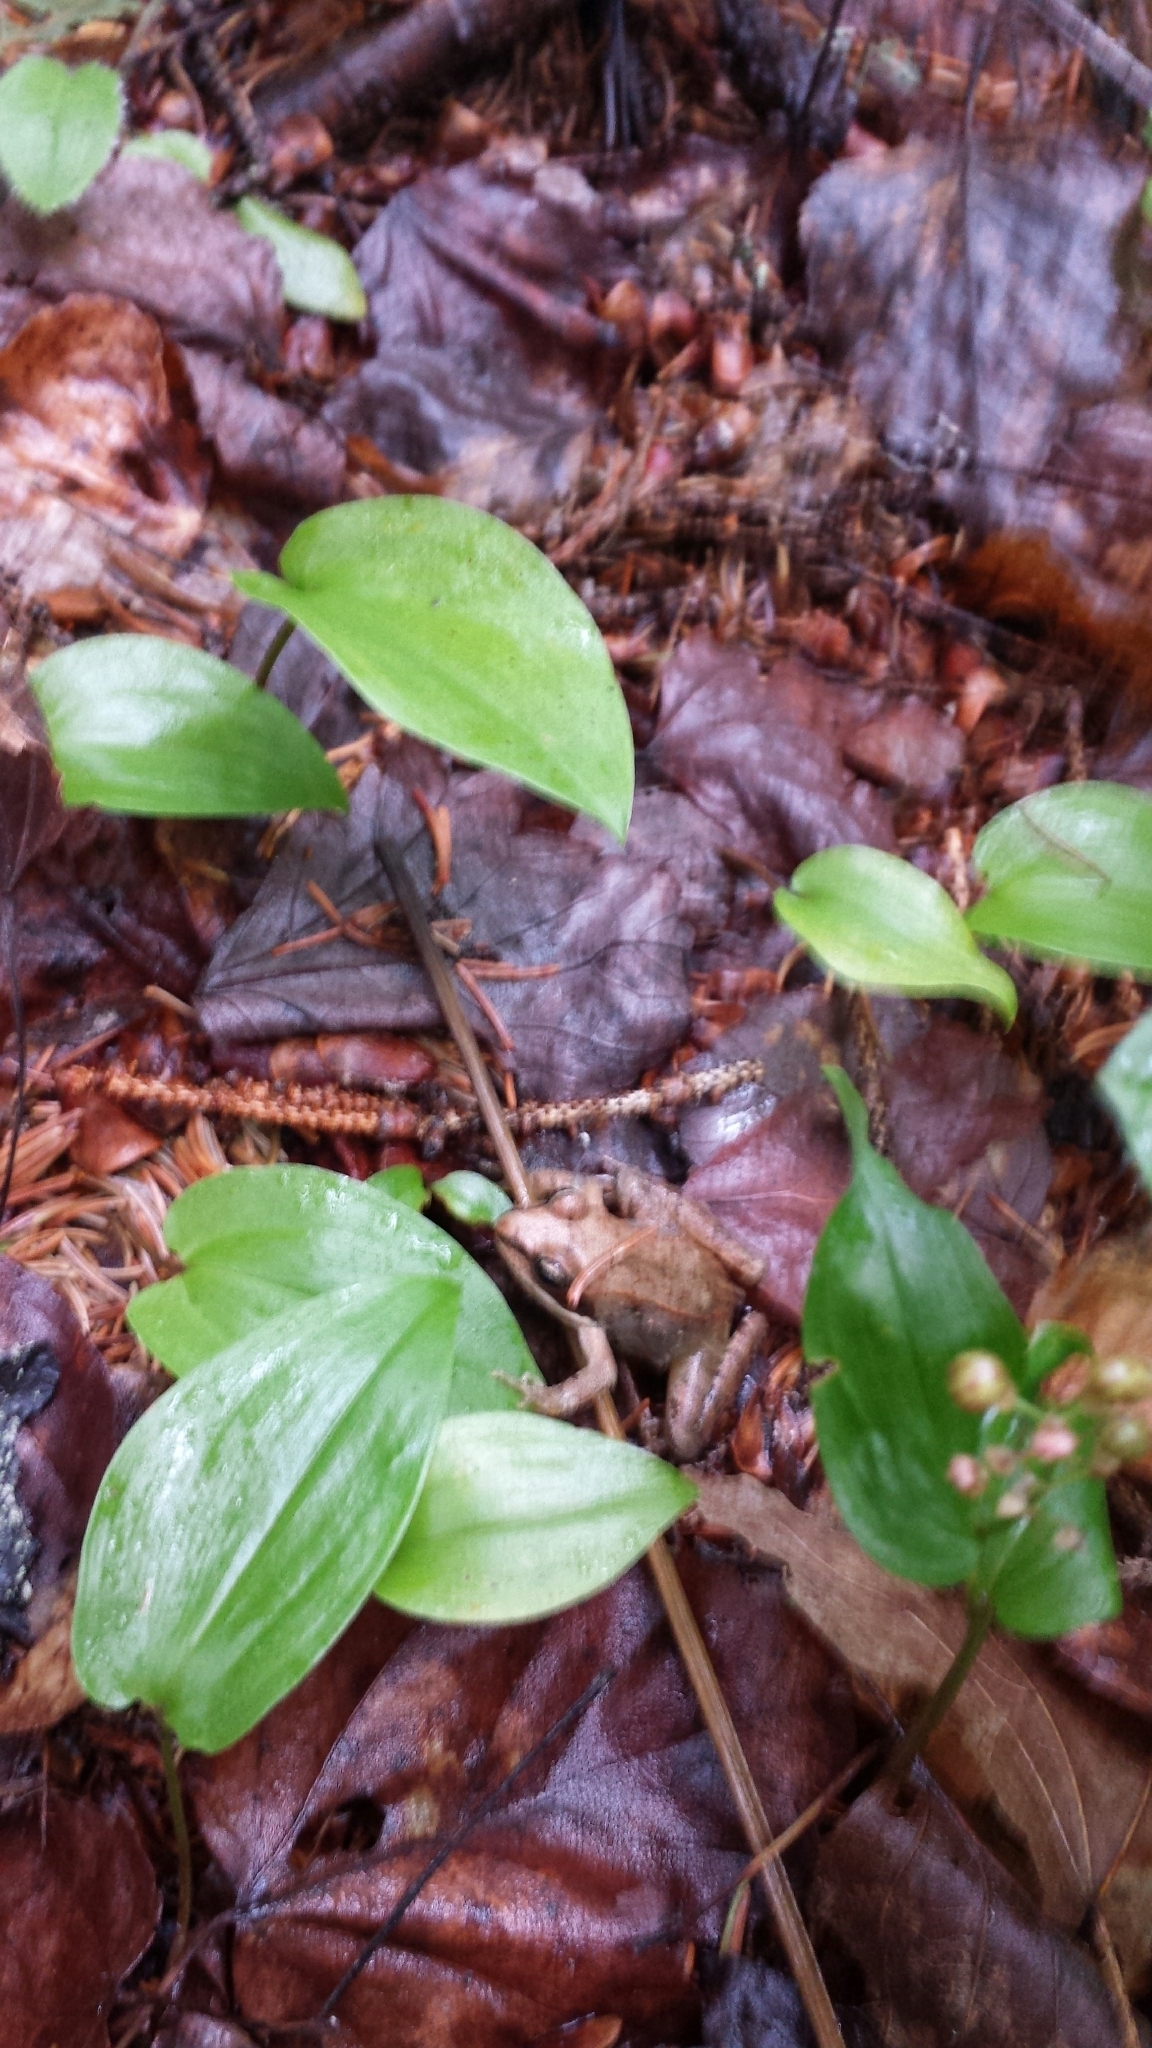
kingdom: Animalia
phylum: Chordata
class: Amphibia
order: Anura
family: Ranidae
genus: Lithobates
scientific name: Lithobates sylvaticus
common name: Wood frog
